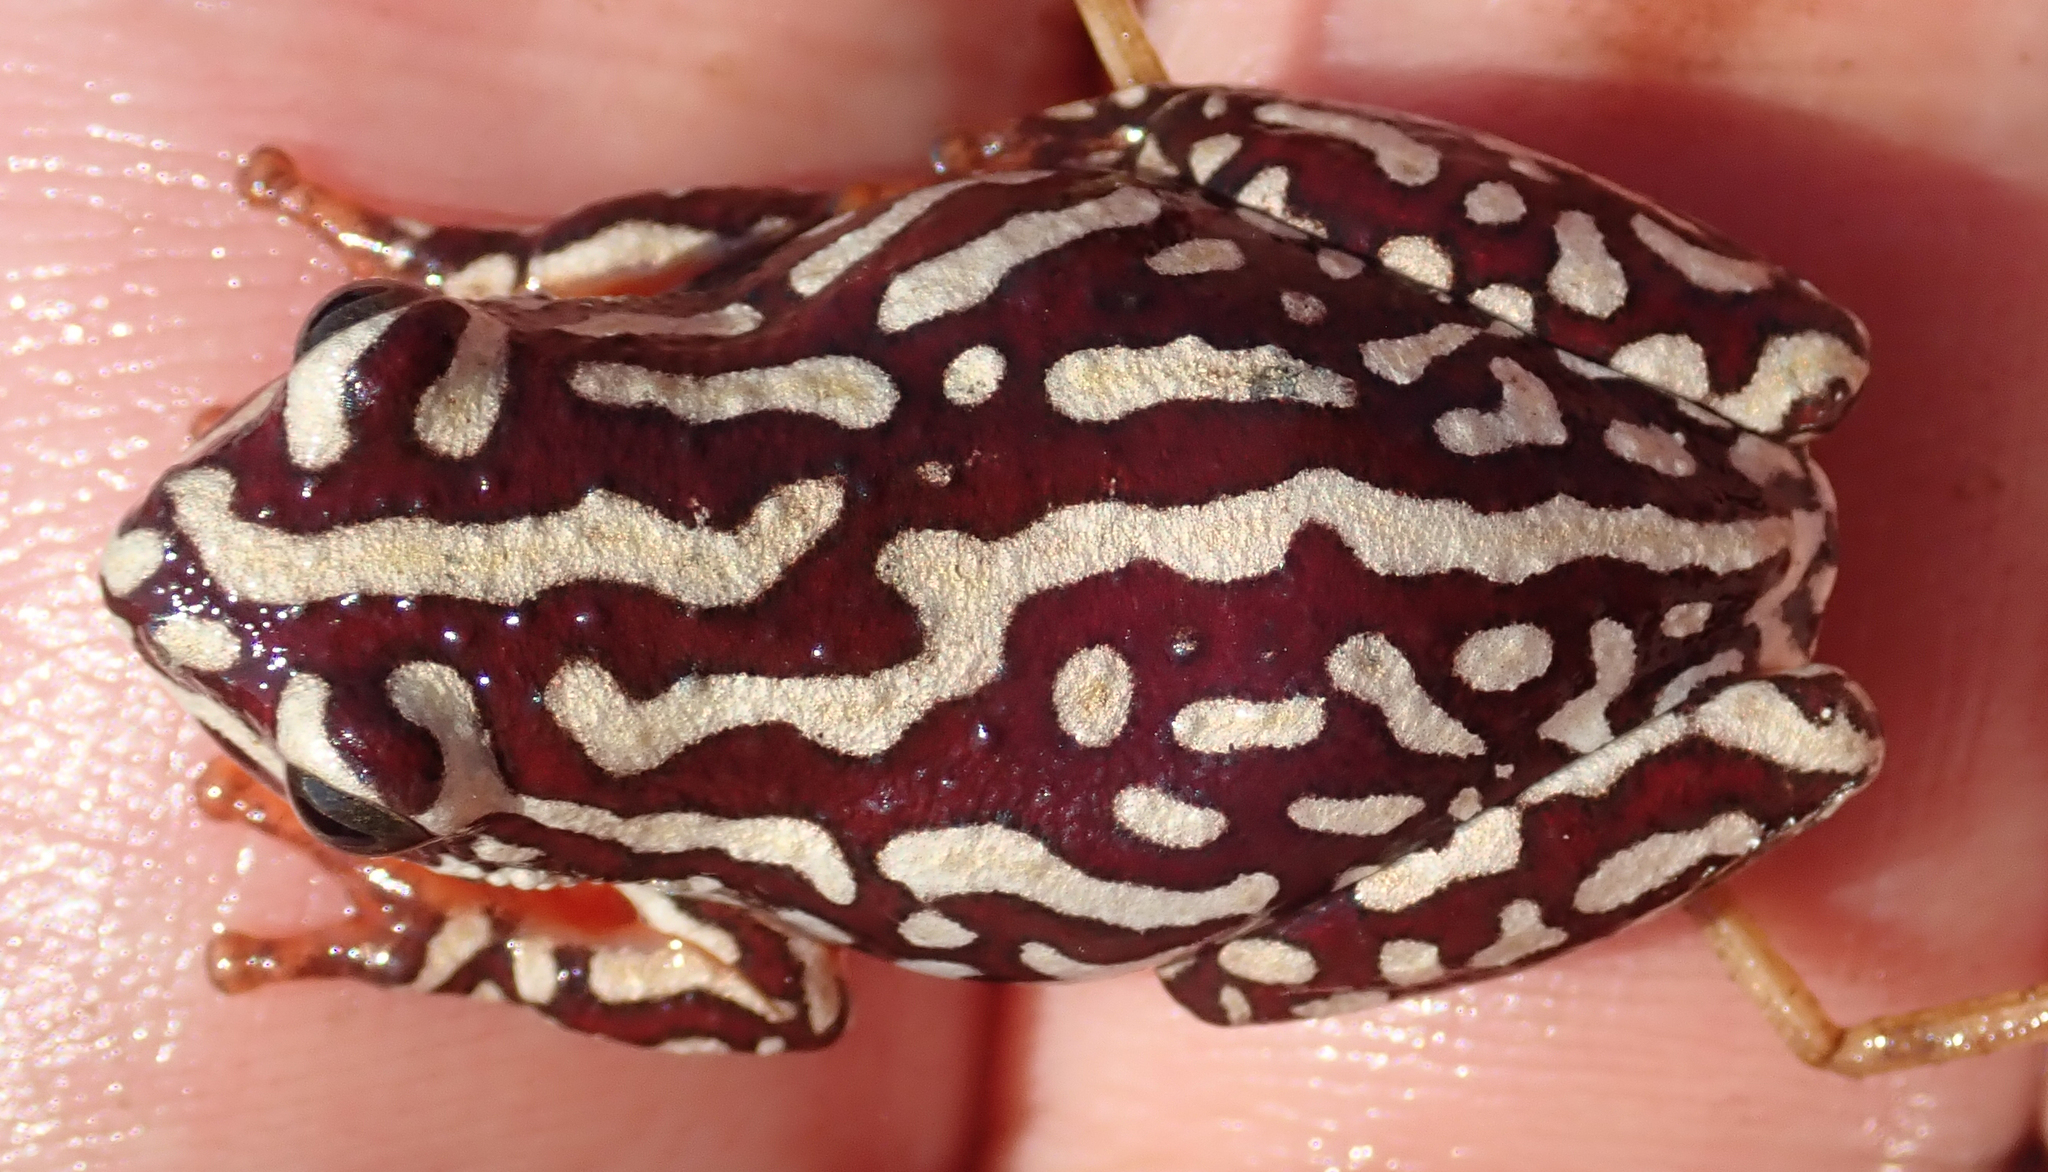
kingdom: Animalia
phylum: Chordata
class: Amphibia
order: Anura
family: Hyperoliidae
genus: Hyperolius
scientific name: Hyperolius parallelus
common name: Angolan reed frog
